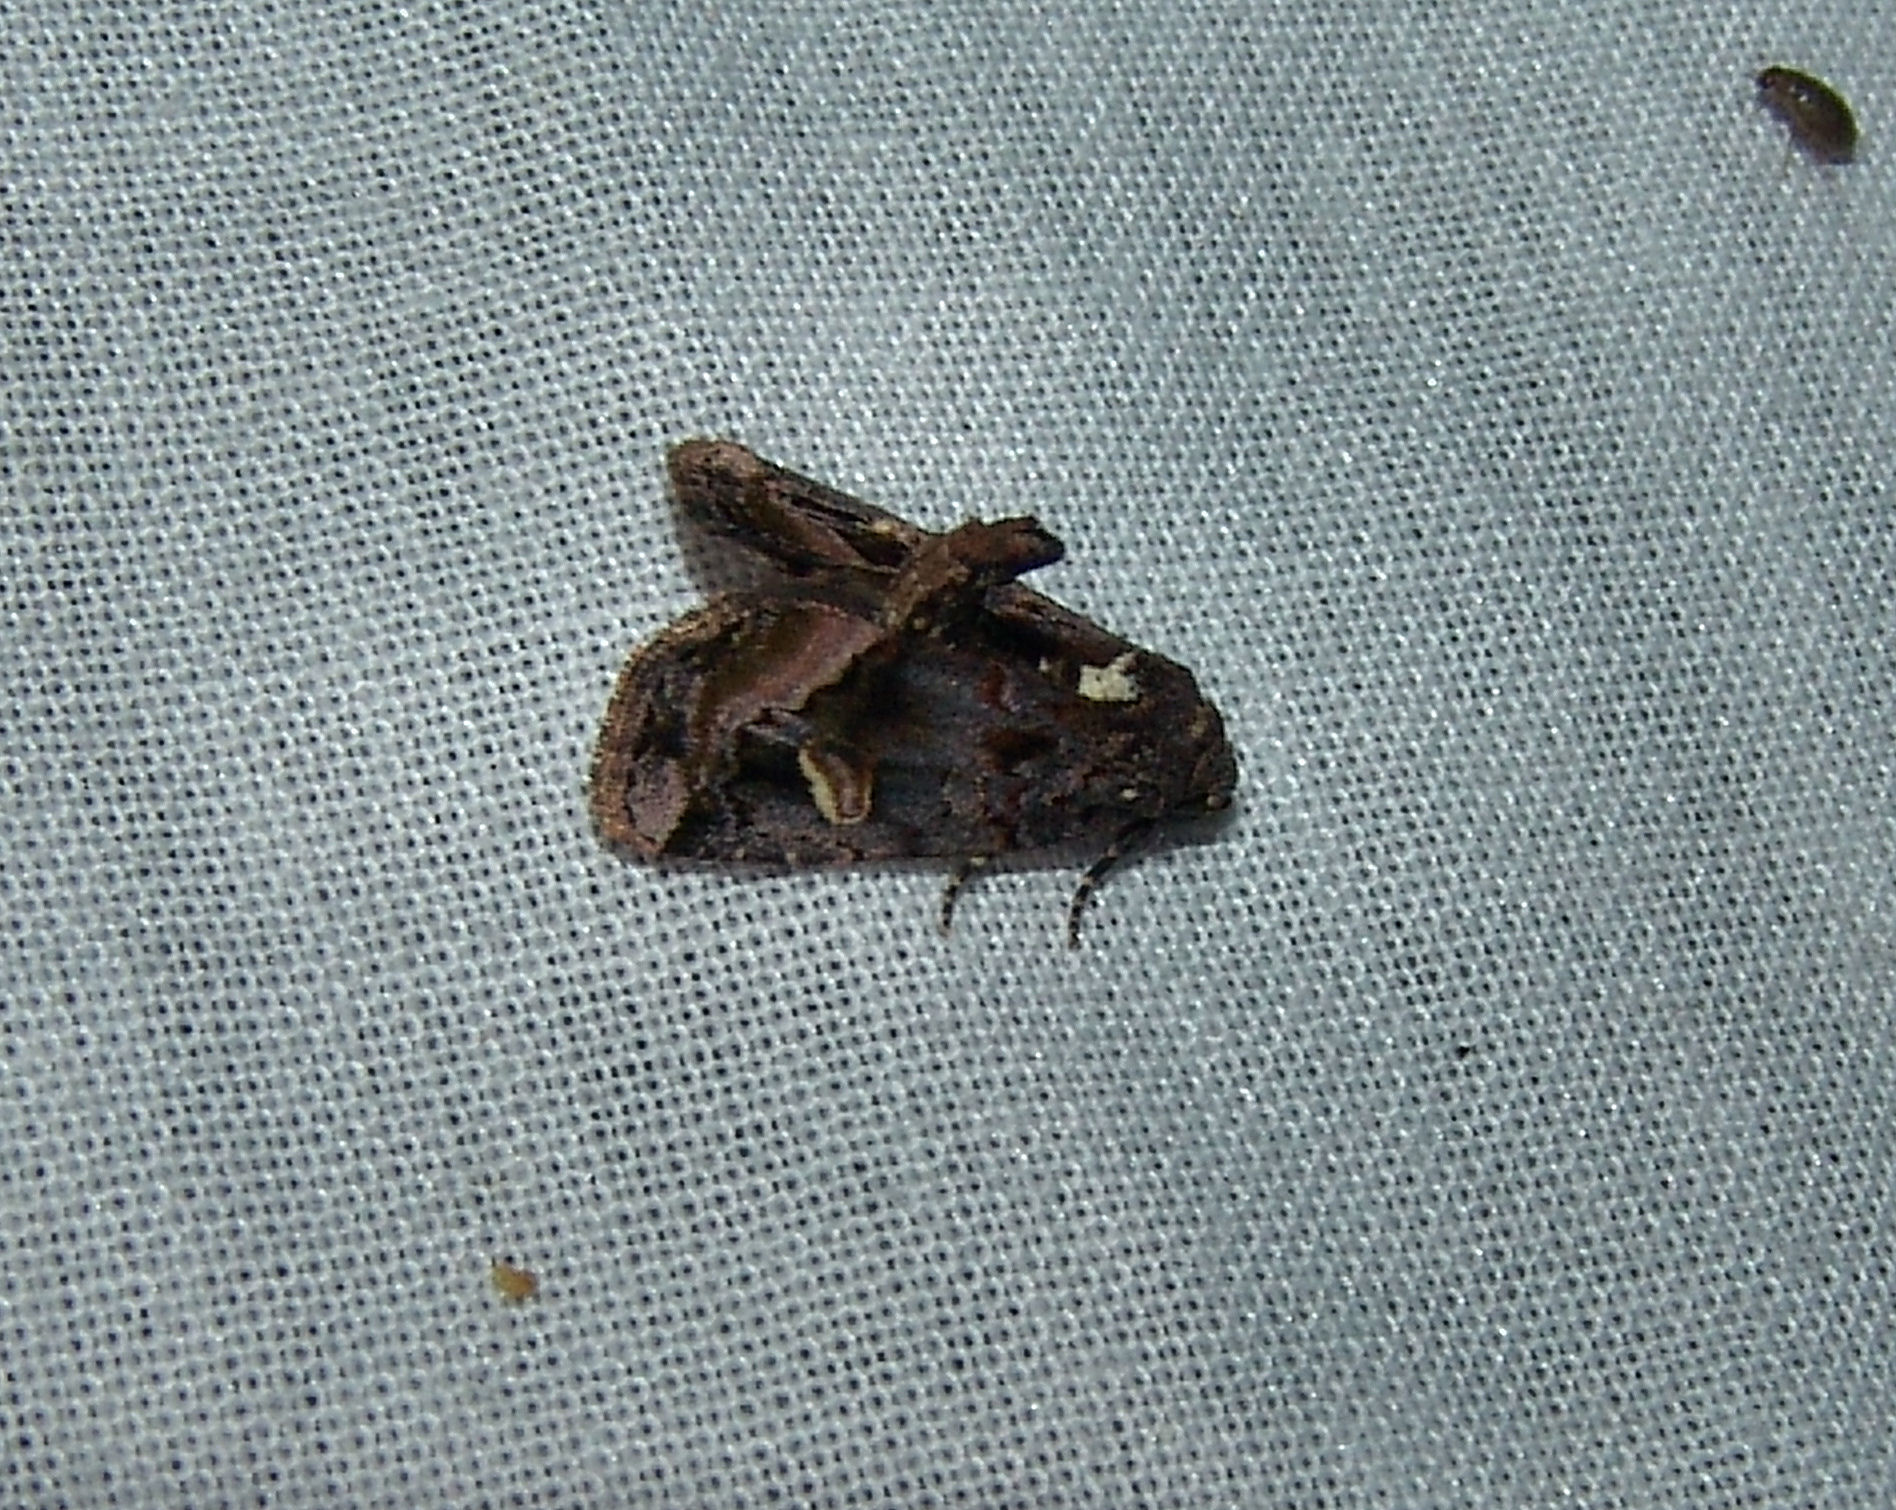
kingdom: Animalia
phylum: Arthropoda
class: Insecta
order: Lepidoptera
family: Noctuidae
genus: Homophoberia
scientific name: Homophoberia apicosa
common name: Black wedge-spot
